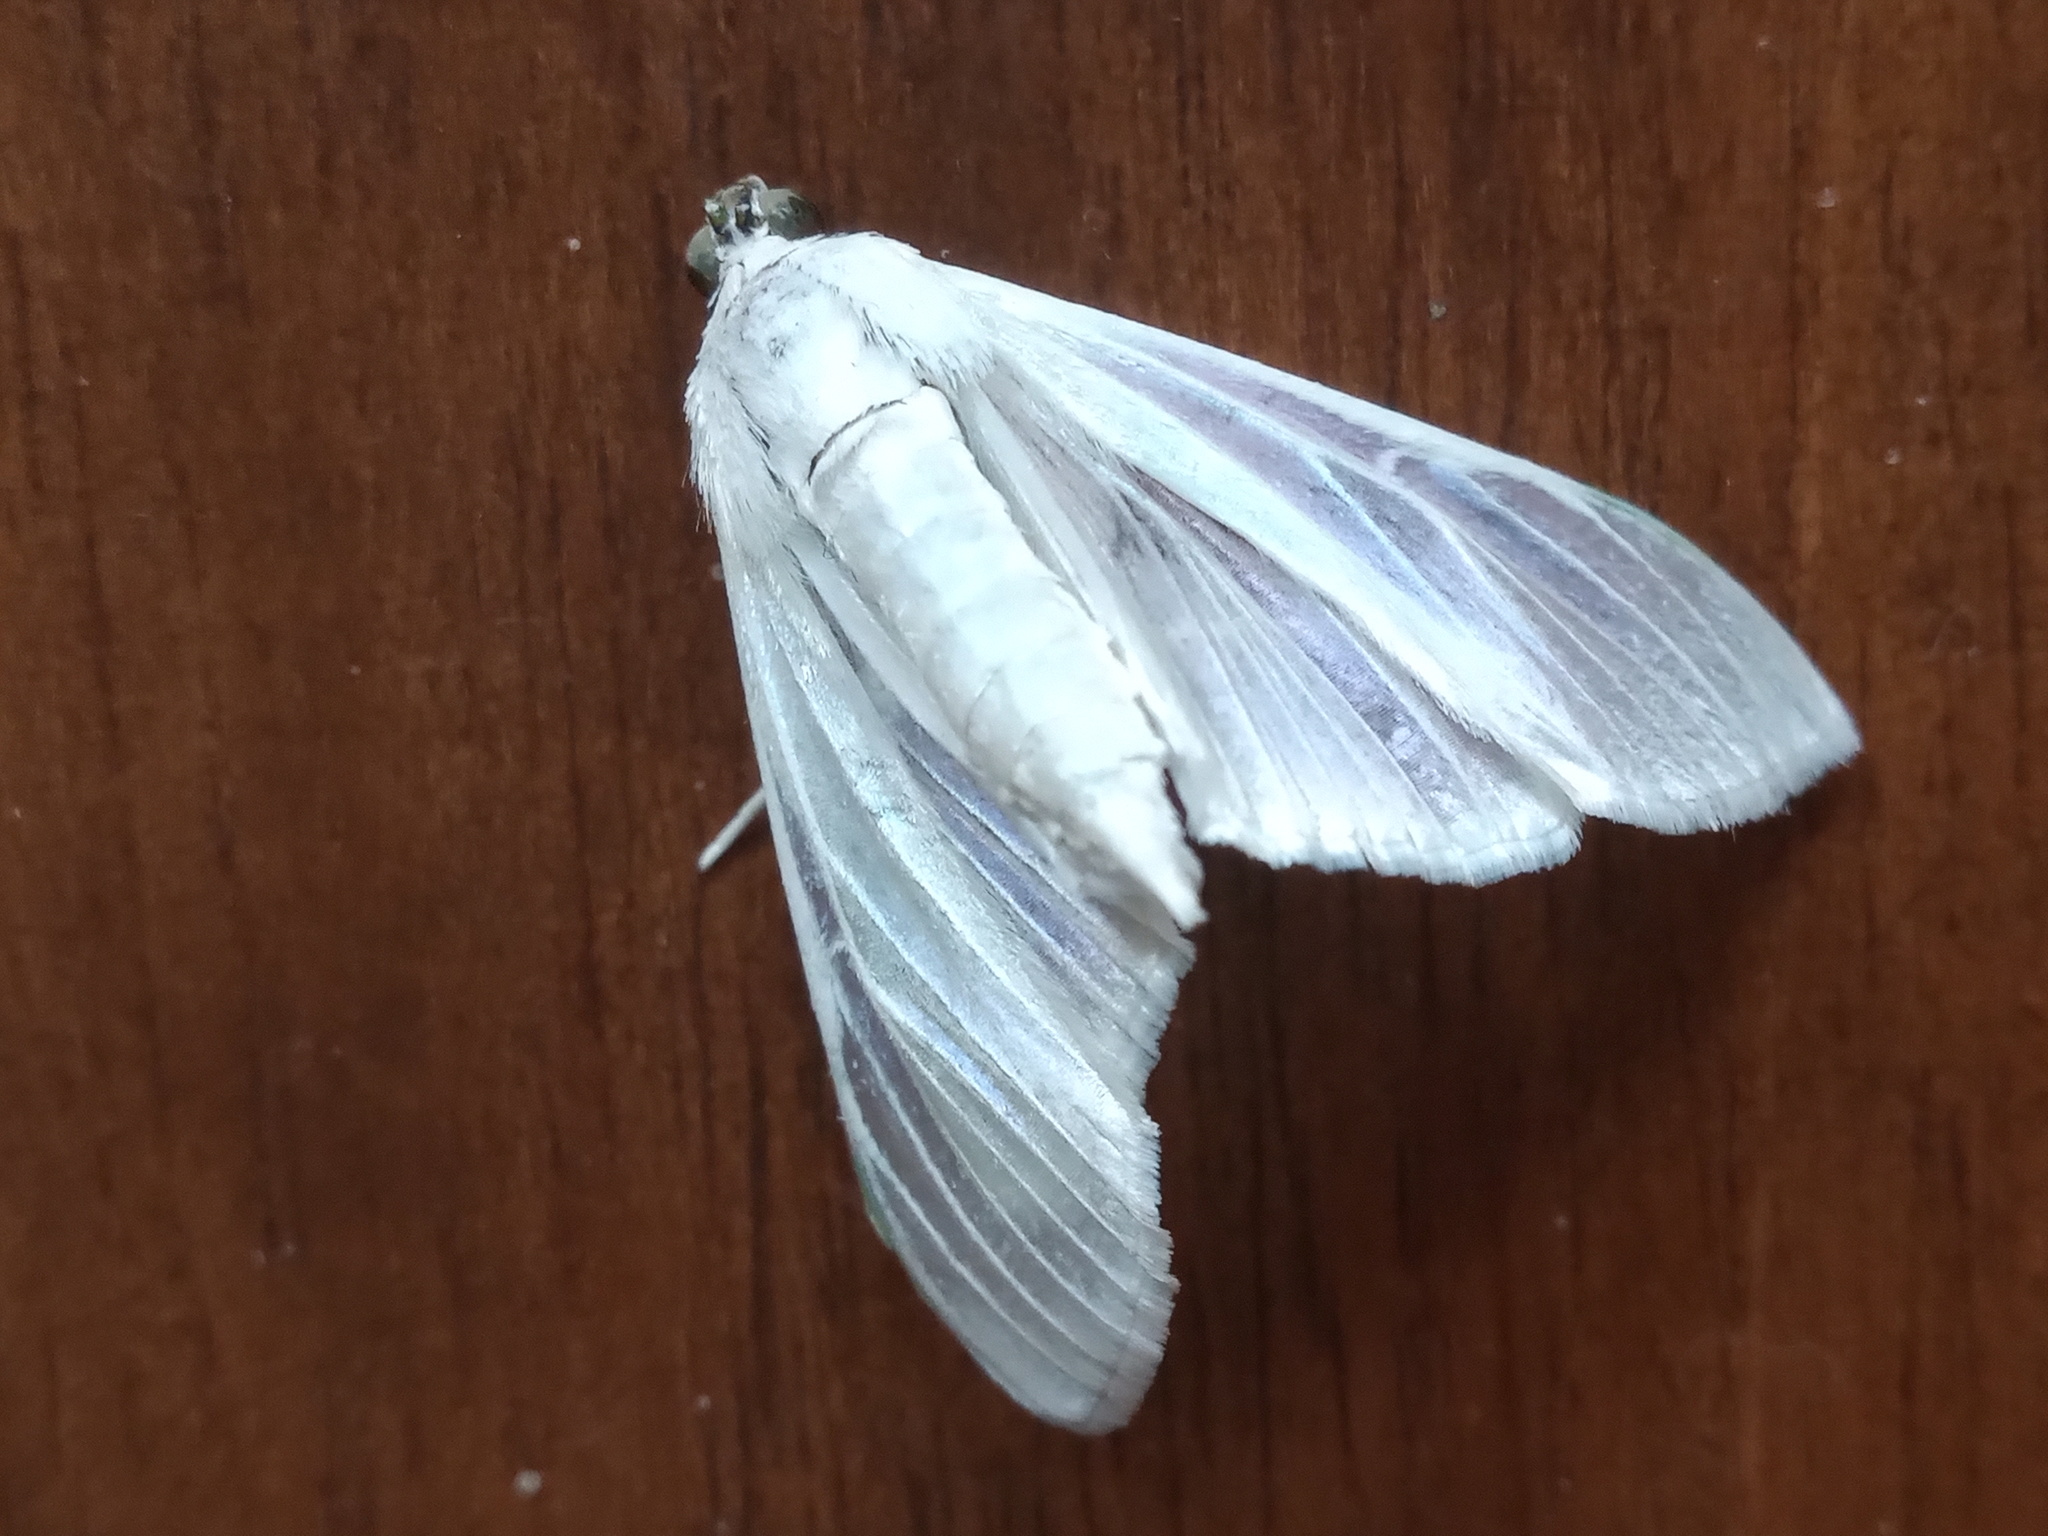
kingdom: Animalia
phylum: Arthropoda
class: Insecta
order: Lepidoptera
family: Crambidae
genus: Palpita
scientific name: Palpita flegia
